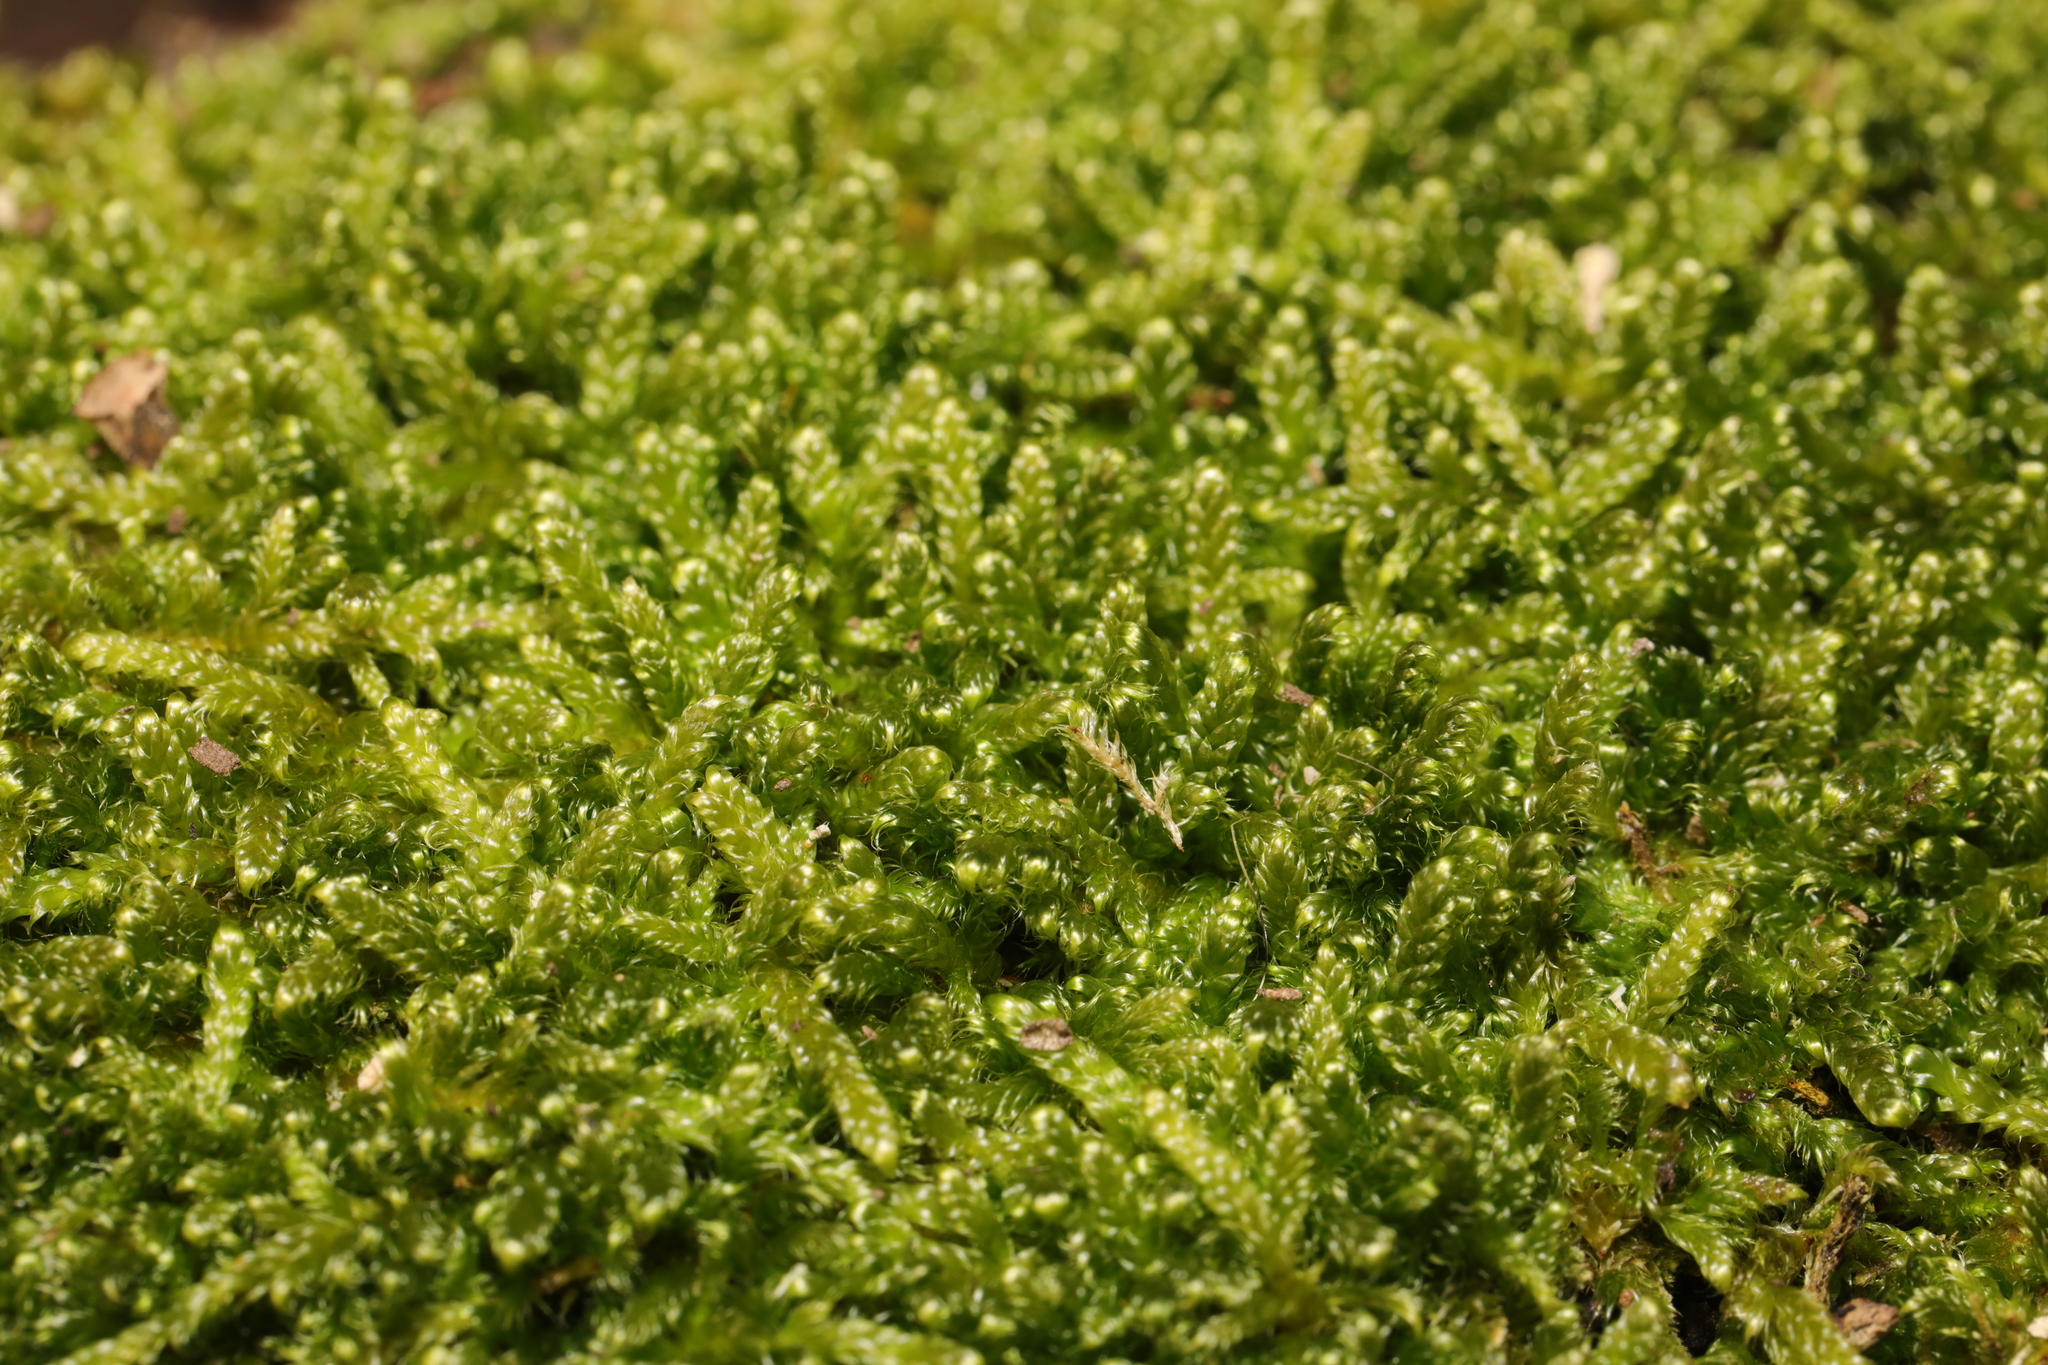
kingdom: Plantae
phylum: Bryophyta
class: Bryopsida
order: Hypnales
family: Hypnaceae
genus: Hypnum
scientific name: Hypnum cupressiforme
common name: Cypress-leaved plait-moss
